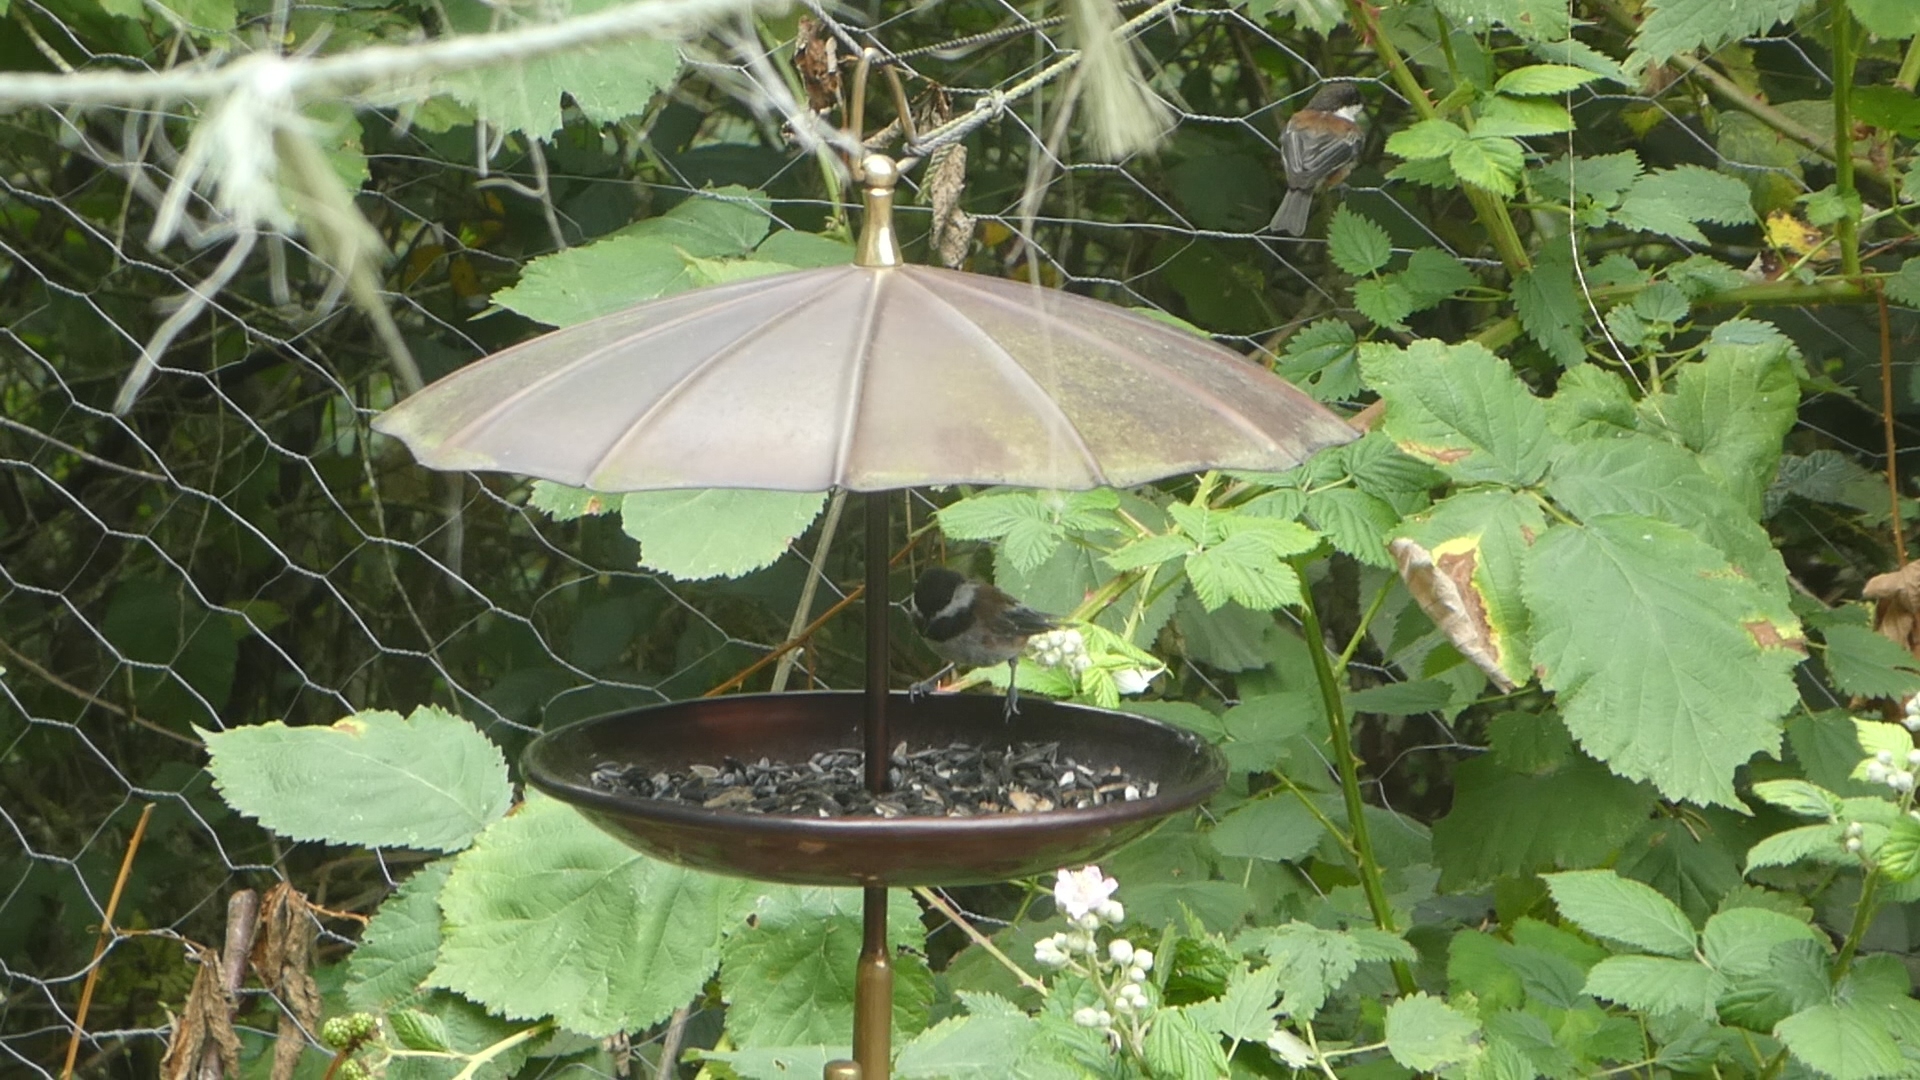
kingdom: Animalia
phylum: Chordata
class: Aves
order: Passeriformes
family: Paridae
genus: Poecile
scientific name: Poecile rufescens
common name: Chestnut-backed chickadee
